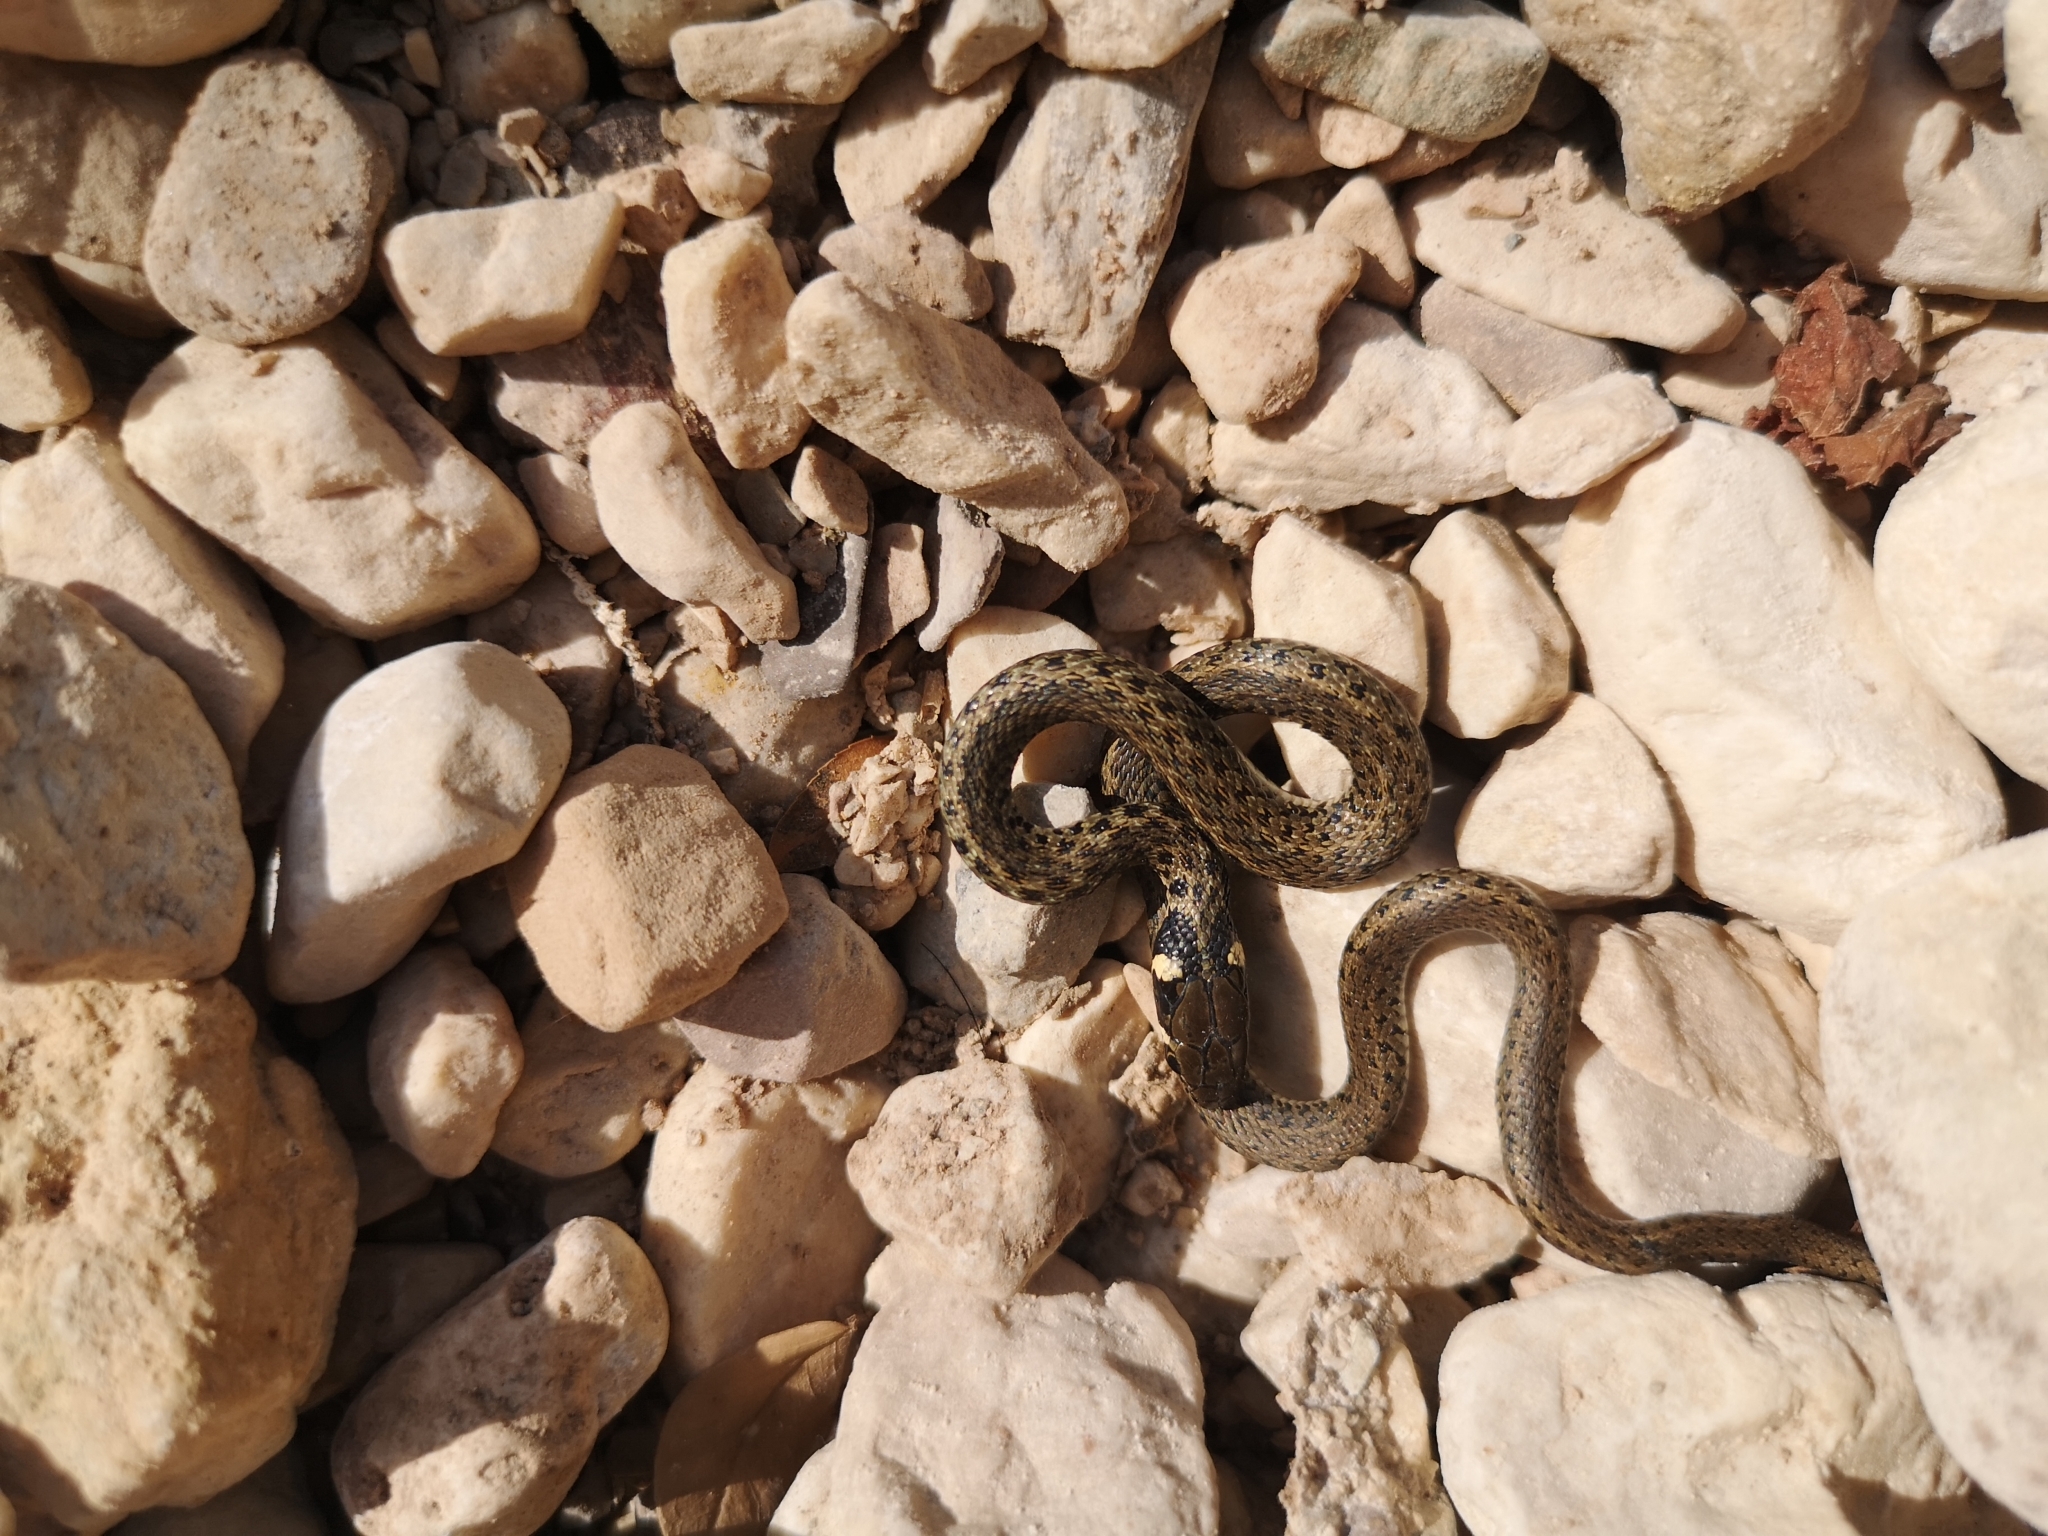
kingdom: Animalia
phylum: Chordata
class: Squamata
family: Colubridae
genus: Natrix
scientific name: Natrix natrix
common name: Grass snake
